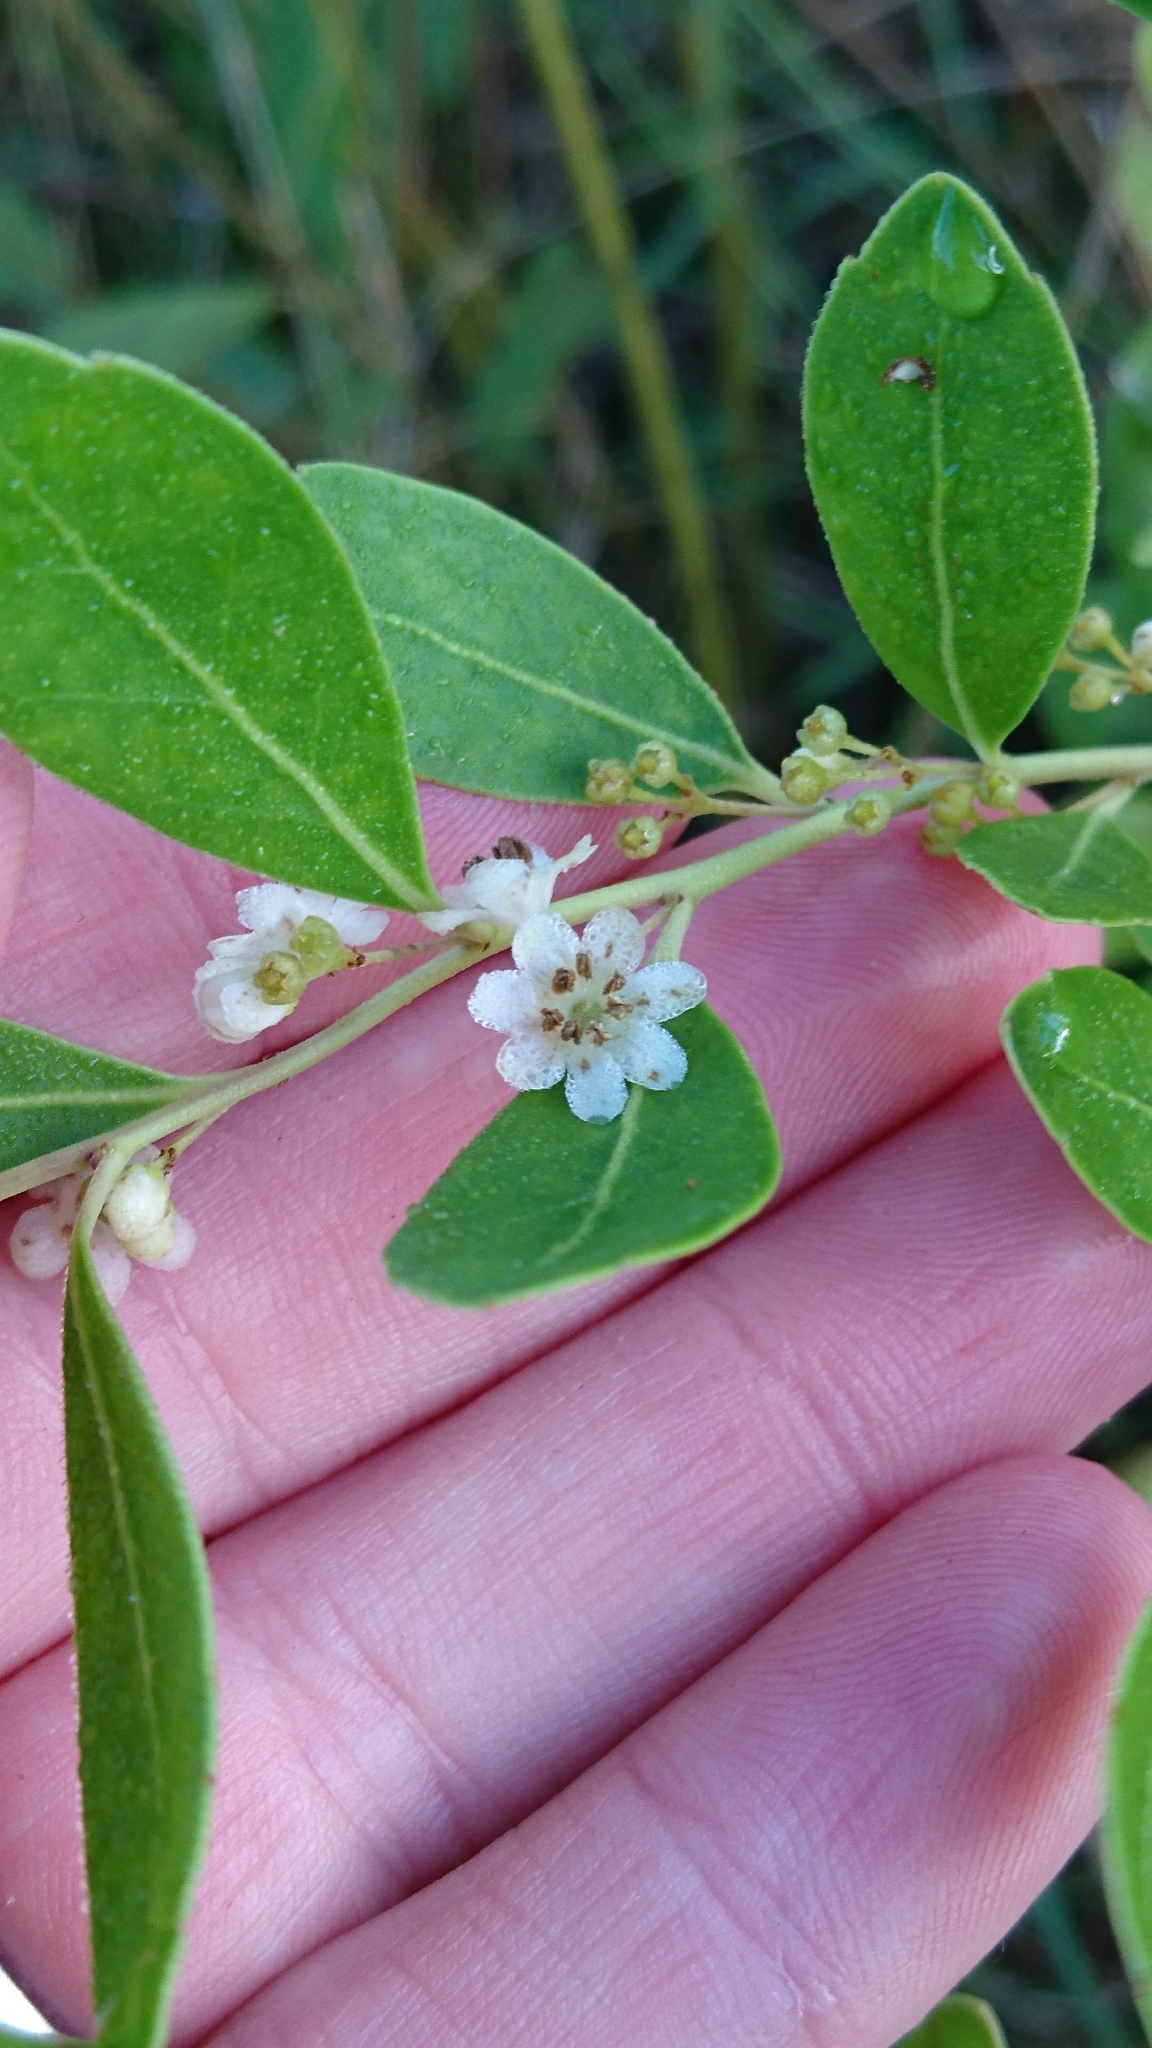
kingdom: Plantae
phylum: Tracheophyta
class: Magnoliopsida
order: Aquifoliales
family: Aquifoliaceae
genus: Ilex
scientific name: Ilex glabra
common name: Bitter gallberry
